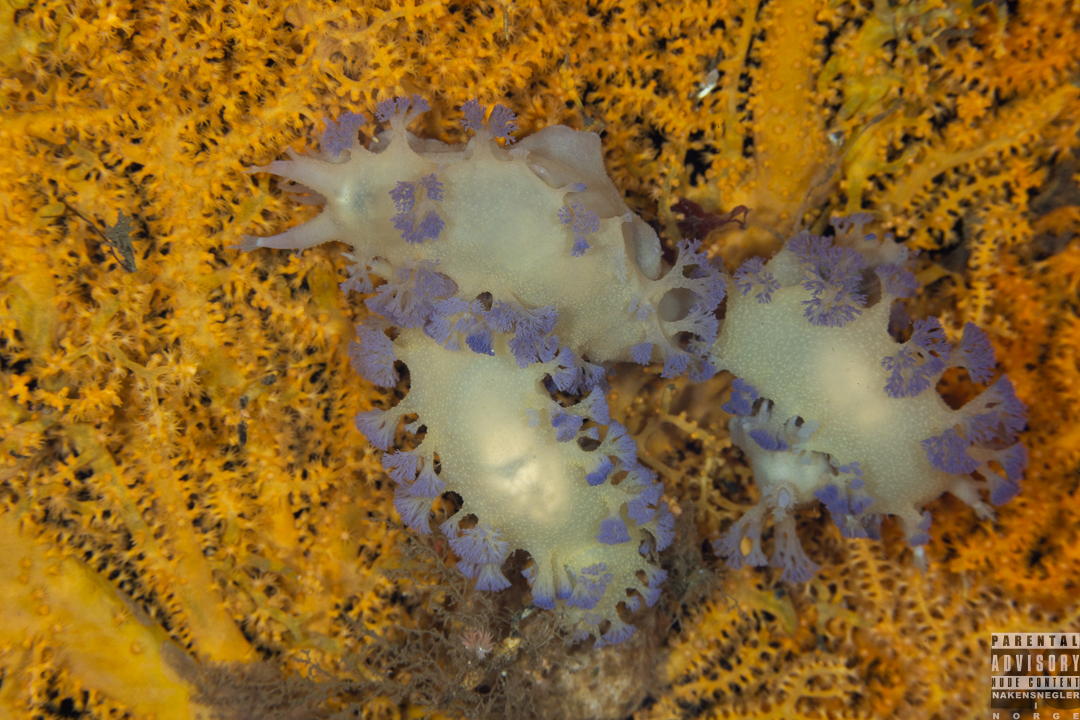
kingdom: Animalia
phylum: Mollusca
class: Gastropoda
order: Nudibranchia
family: Tritoniidae
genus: Tritonia
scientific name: Tritonia griegi
